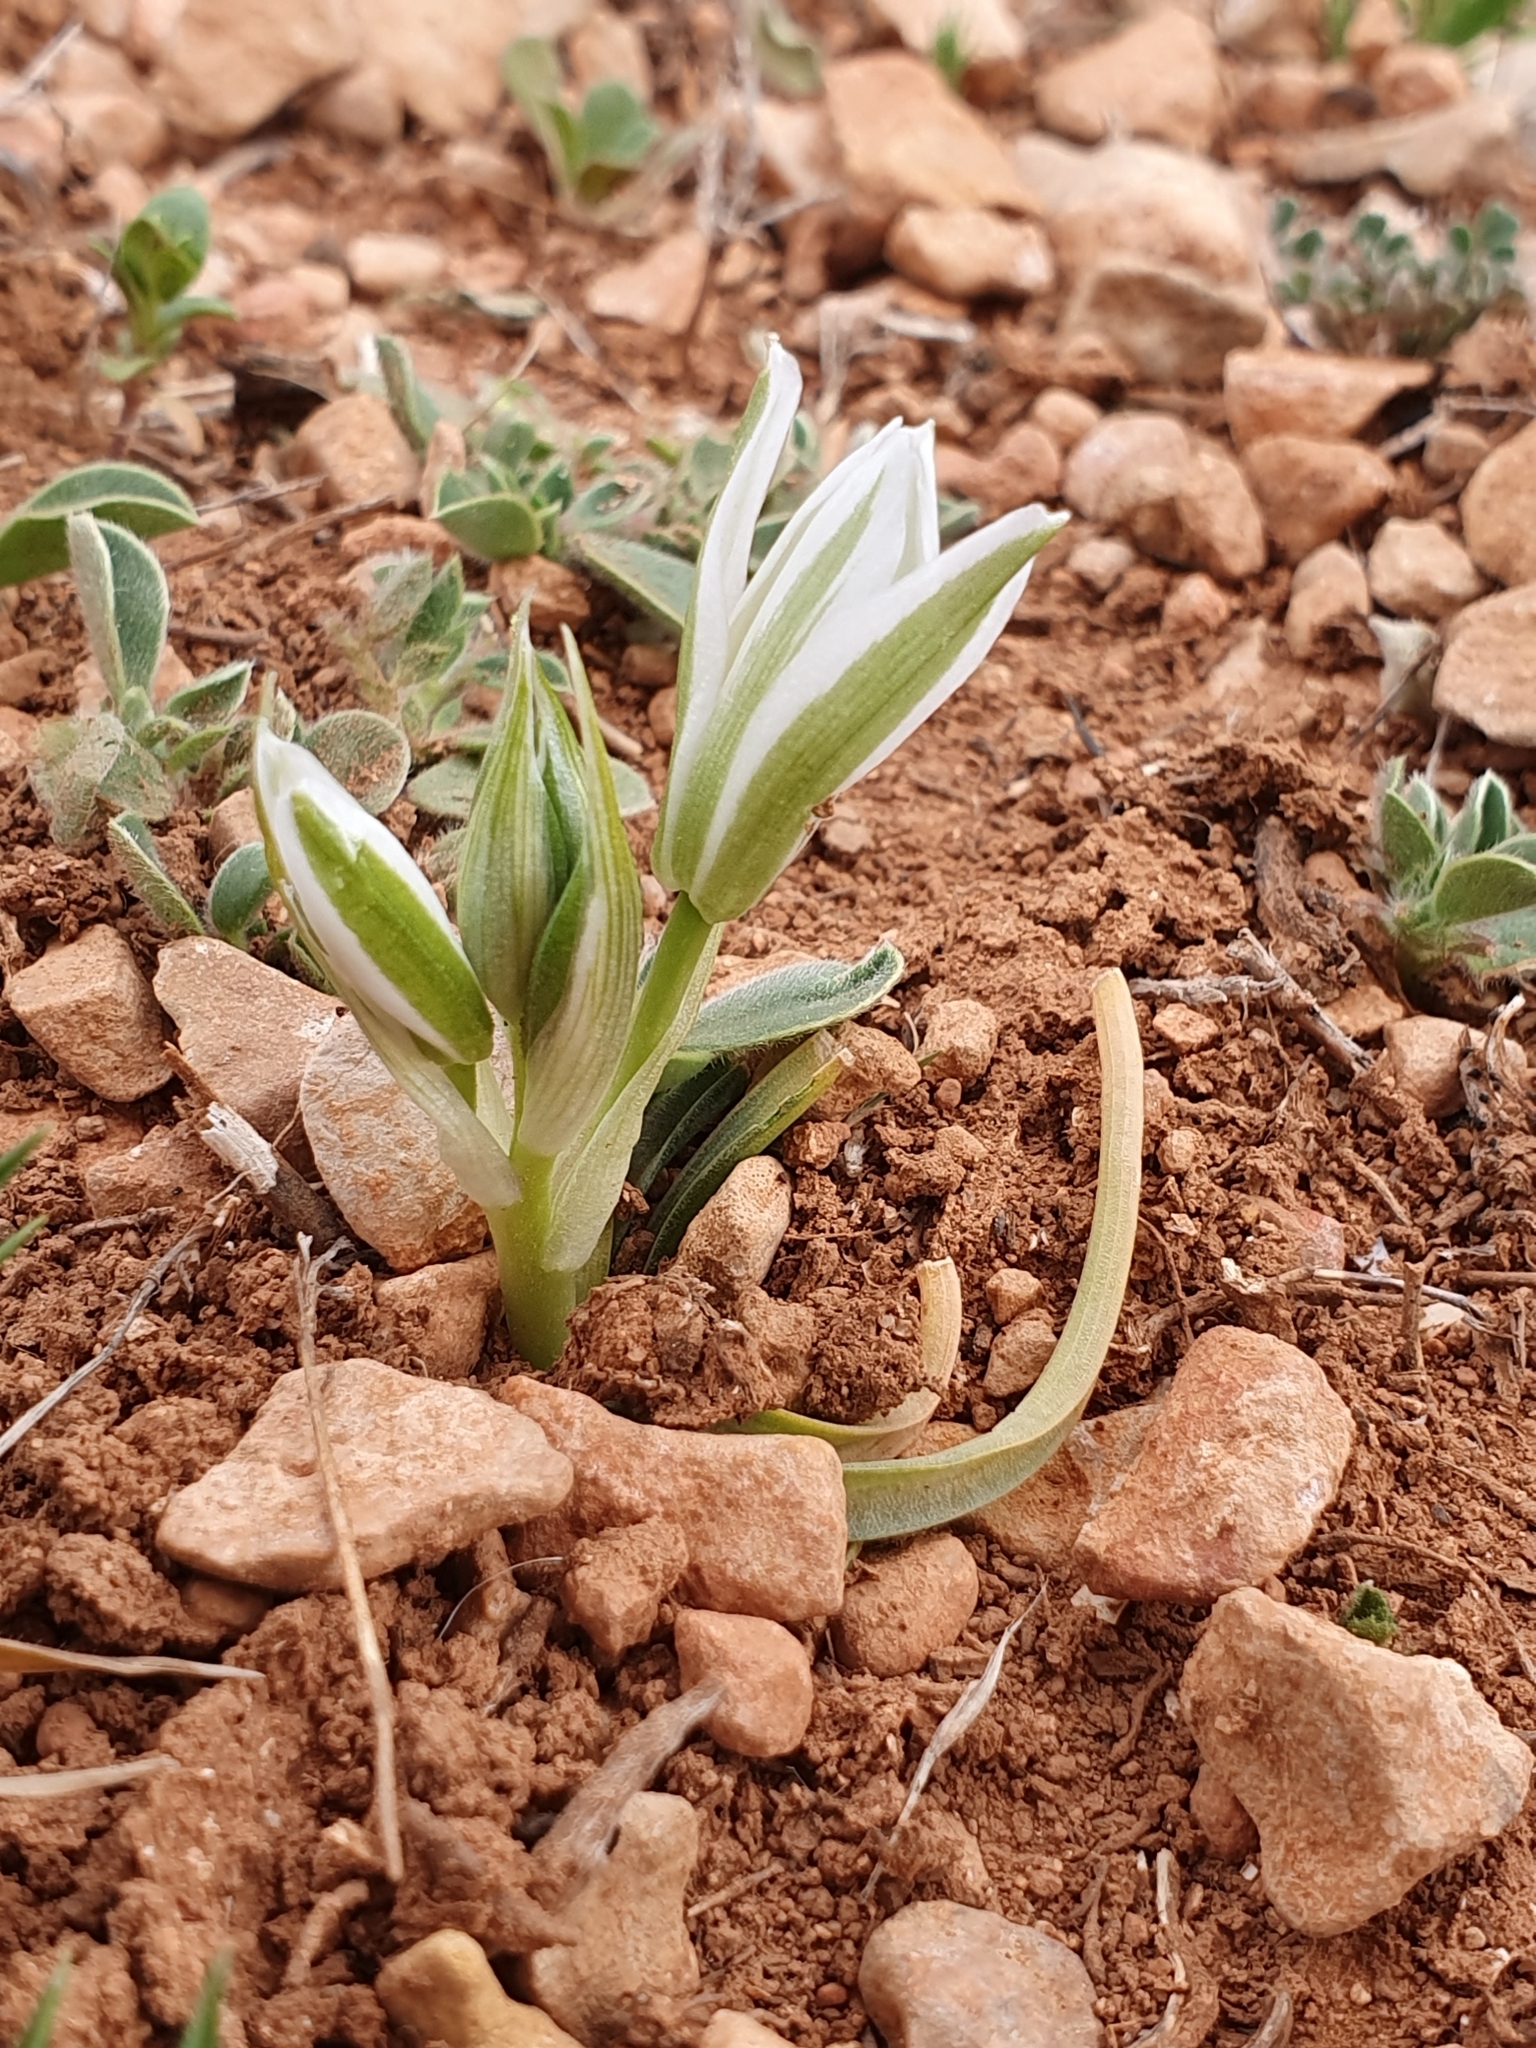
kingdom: Plantae
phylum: Tracheophyta
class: Liliopsida
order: Asparagales
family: Asparagaceae
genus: Ornithogalum
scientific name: Ornithogalum baeticum
